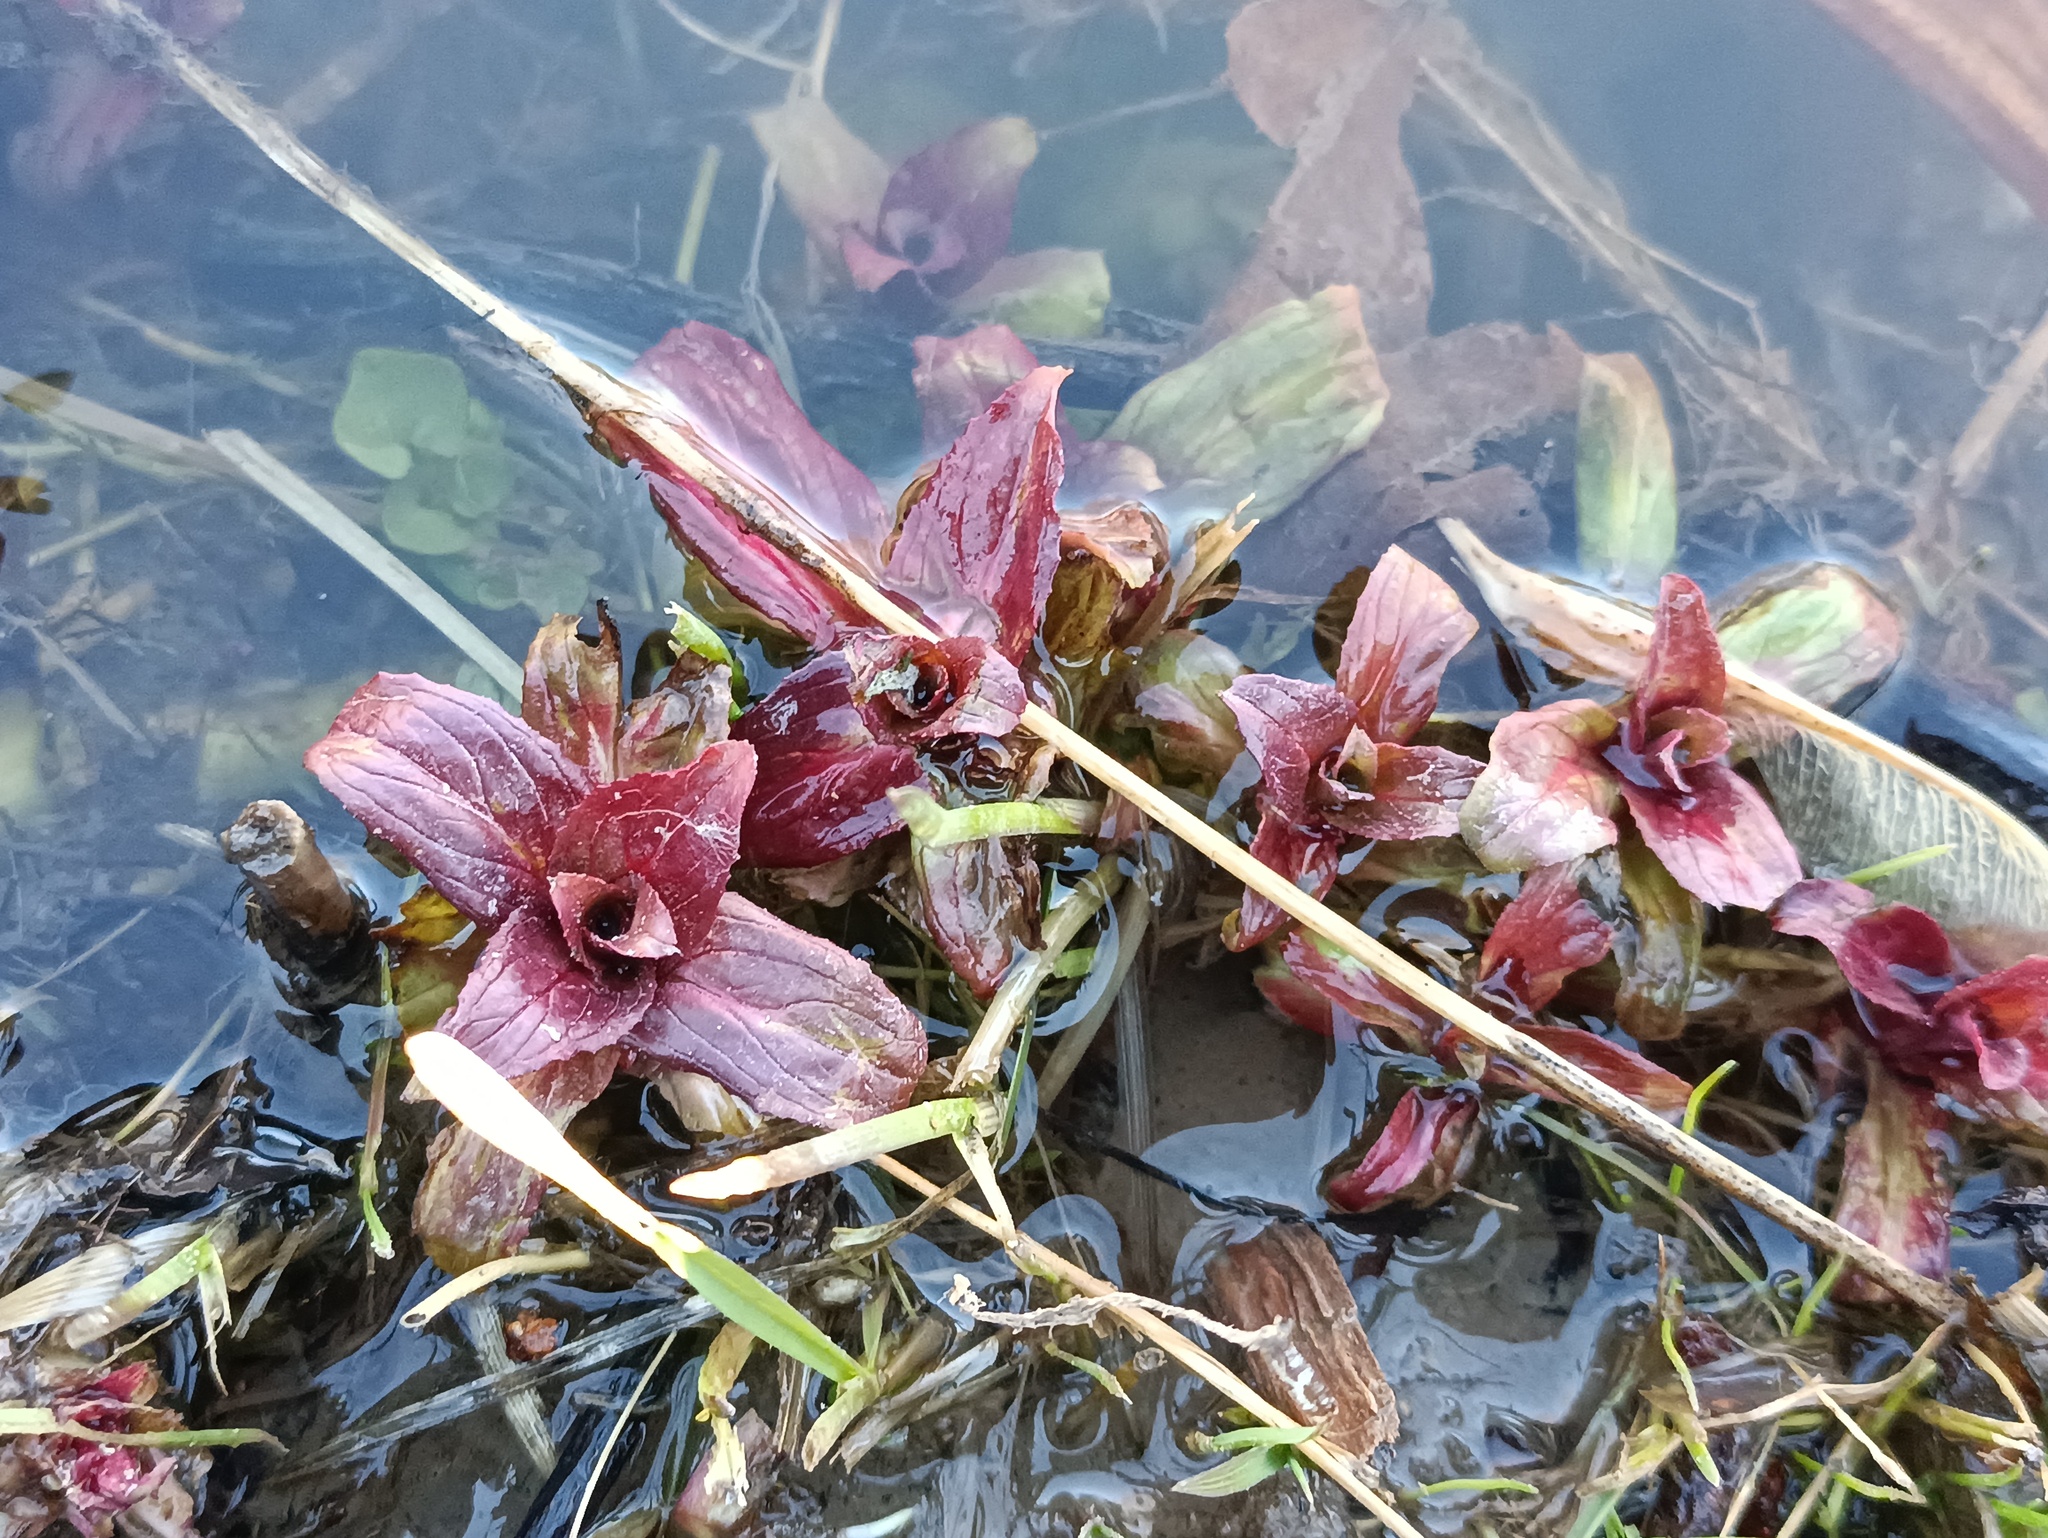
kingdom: Plantae
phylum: Tracheophyta
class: Magnoliopsida
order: Myrtales
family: Onagraceae
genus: Epilobium
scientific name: Epilobium hirsutum
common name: Great willowherb
